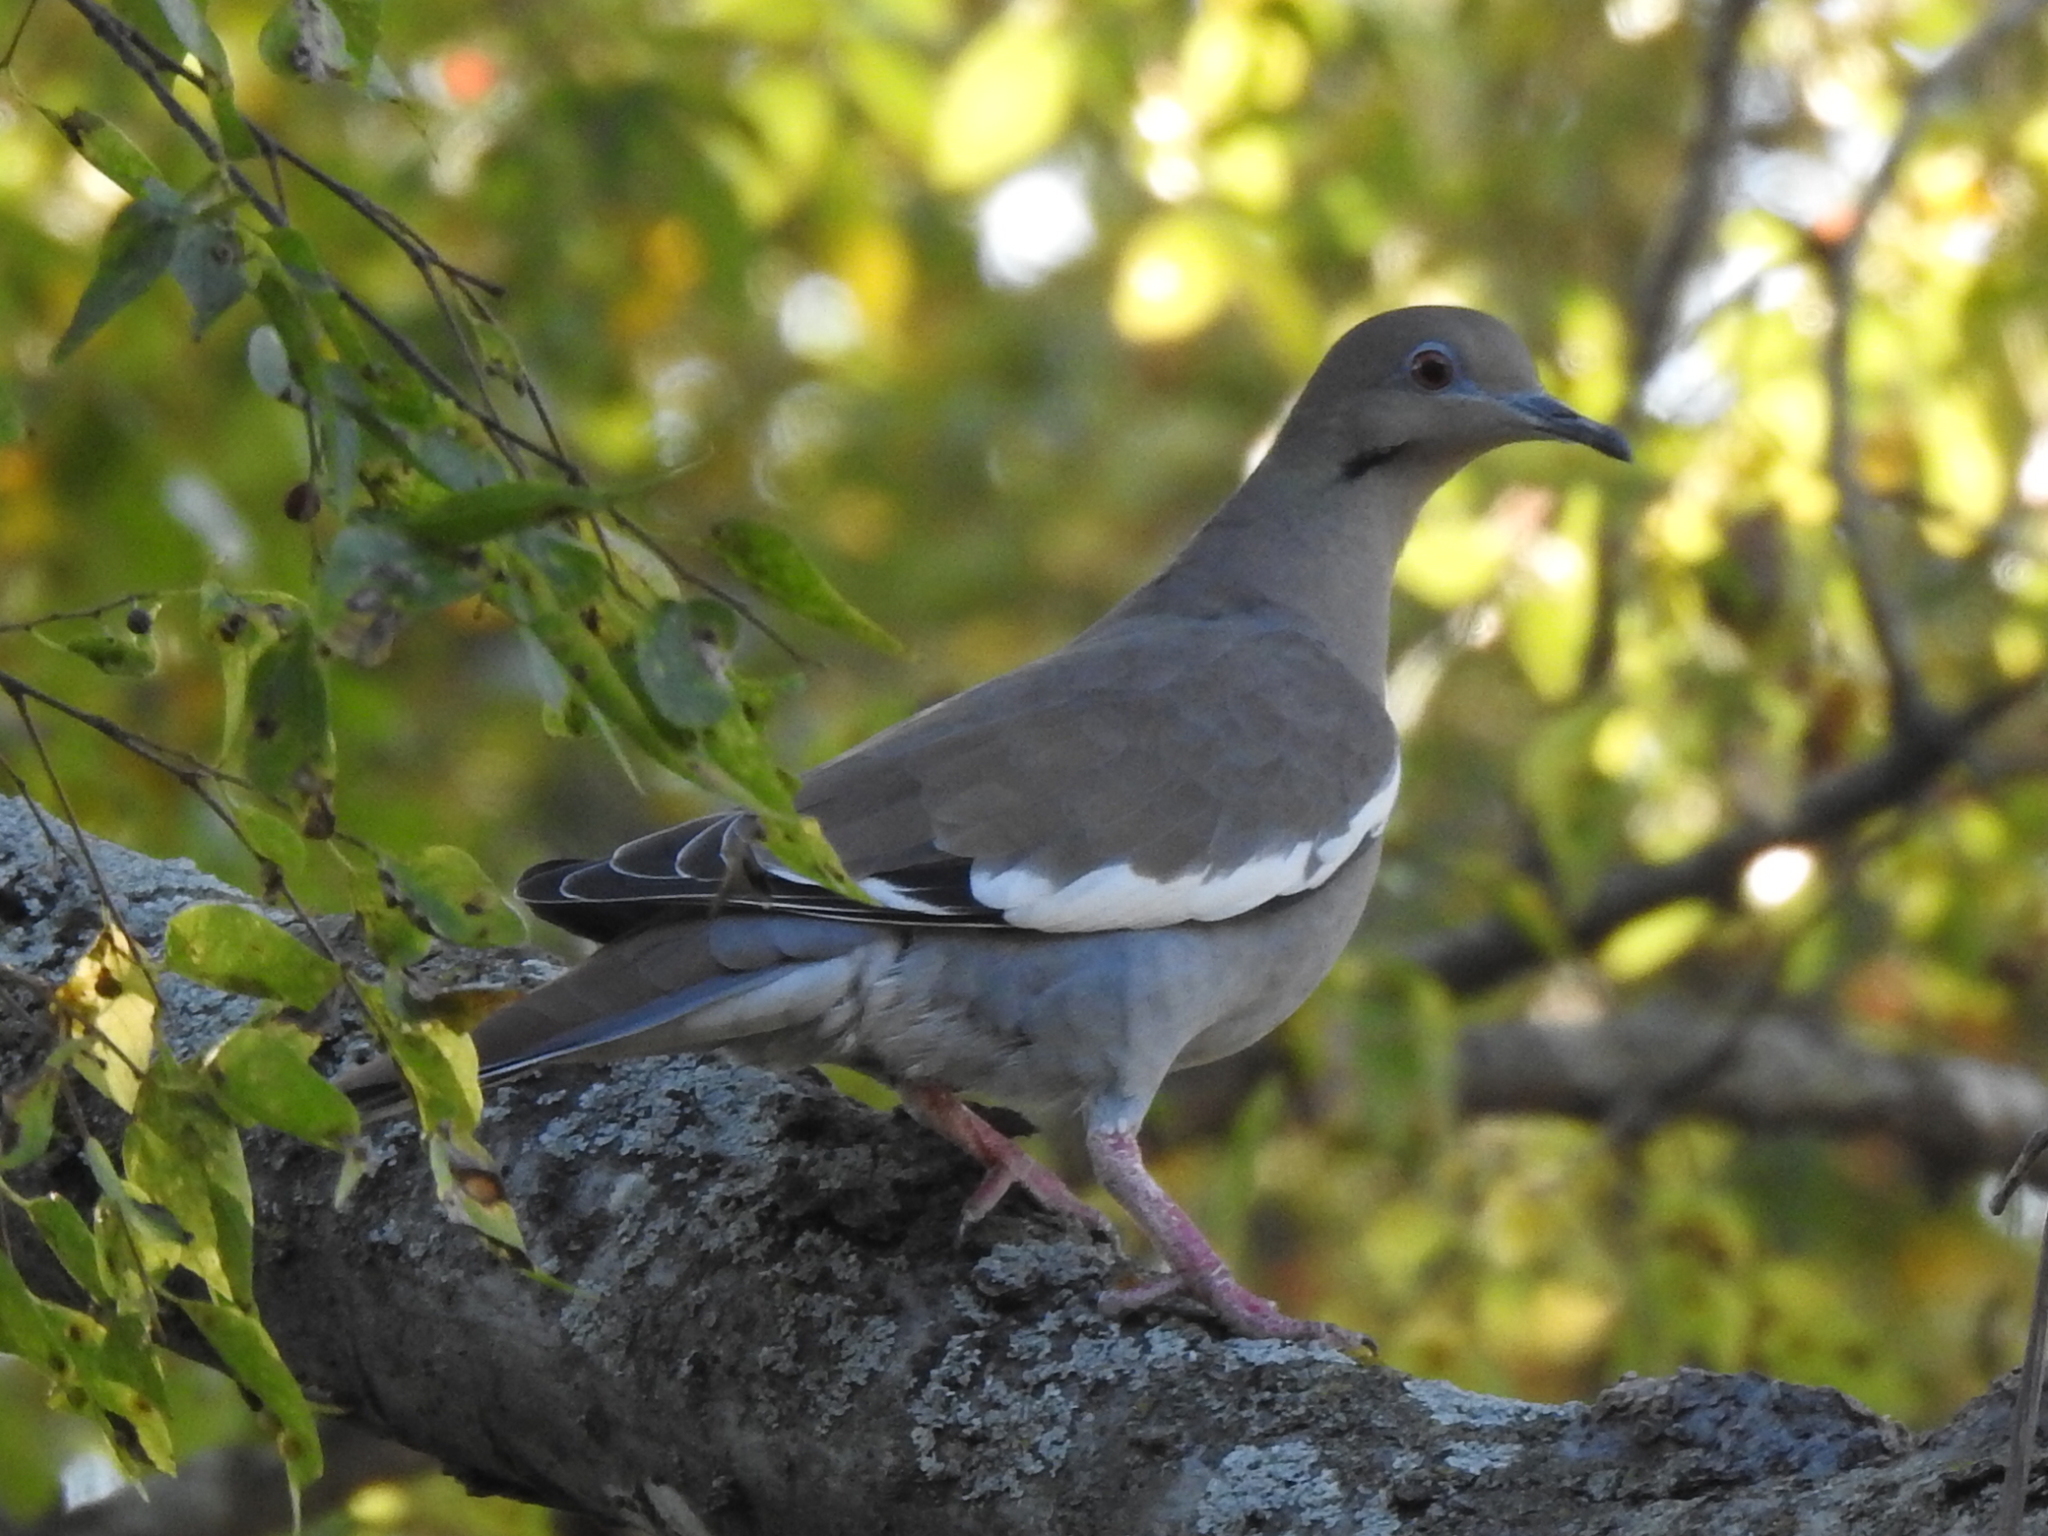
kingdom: Animalia
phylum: Chordata
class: Aves
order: Columbiformes
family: Columbidae
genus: Zenaida
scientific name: Zenaida asiatica
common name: White-winged dove
